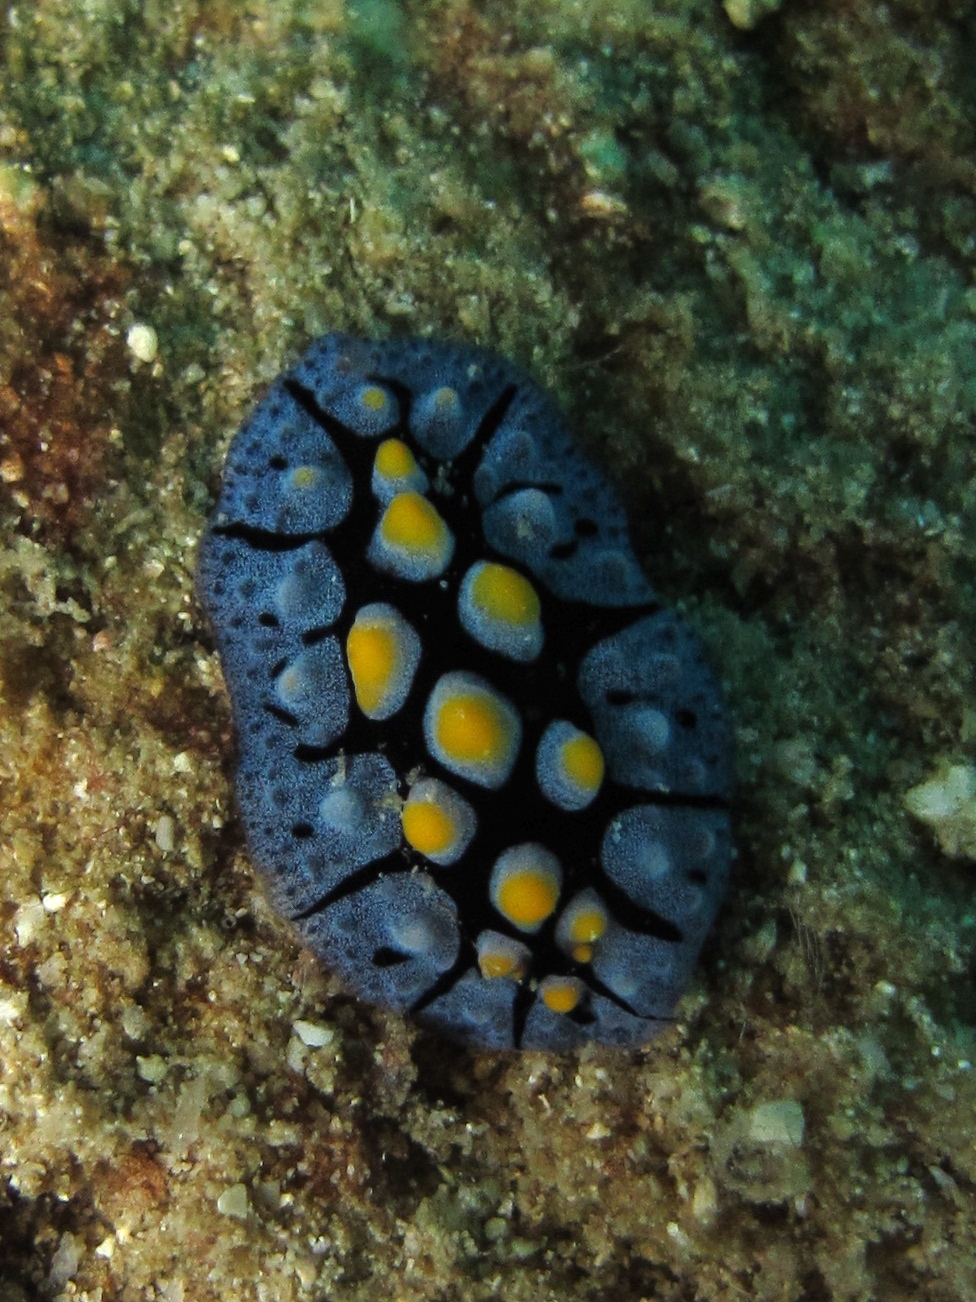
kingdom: Animalia
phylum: Mollusca
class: Gastropoda
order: Nudibranchia
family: Phyllidiidae
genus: Phyllidia
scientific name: Phyllidia picta
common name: Black-rayed phyllidia
